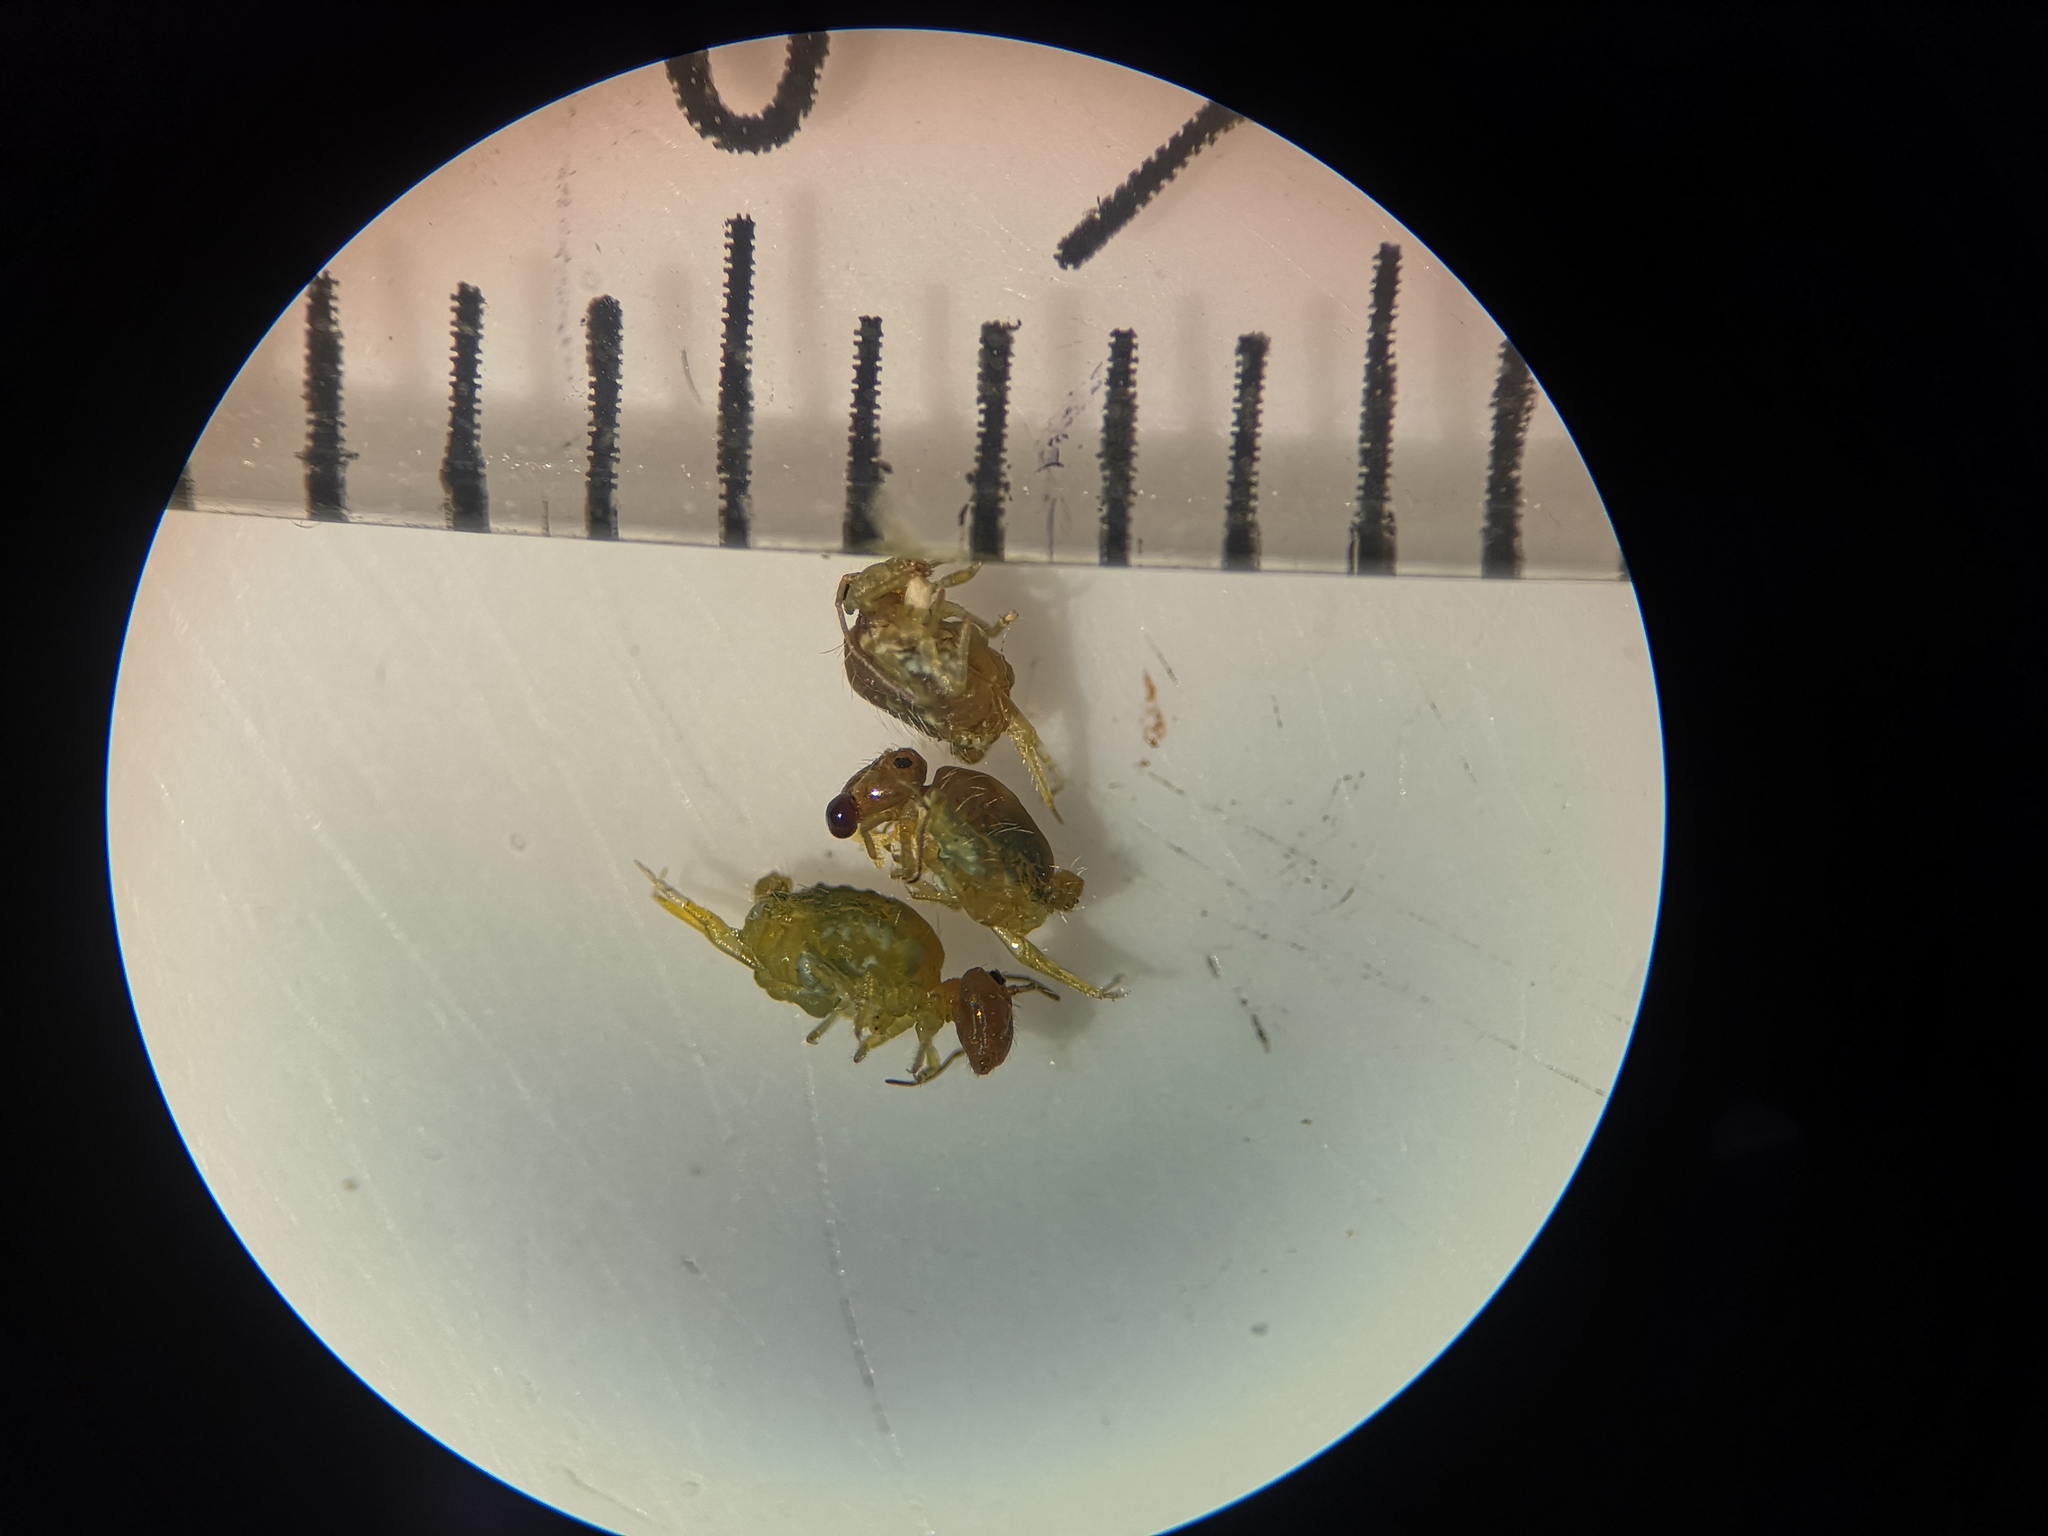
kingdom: Animalia
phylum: Arthropoda
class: Collembola
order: Symphypleona
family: Sminthuridae
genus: Sminthurus
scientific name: Sminthurus viridis
